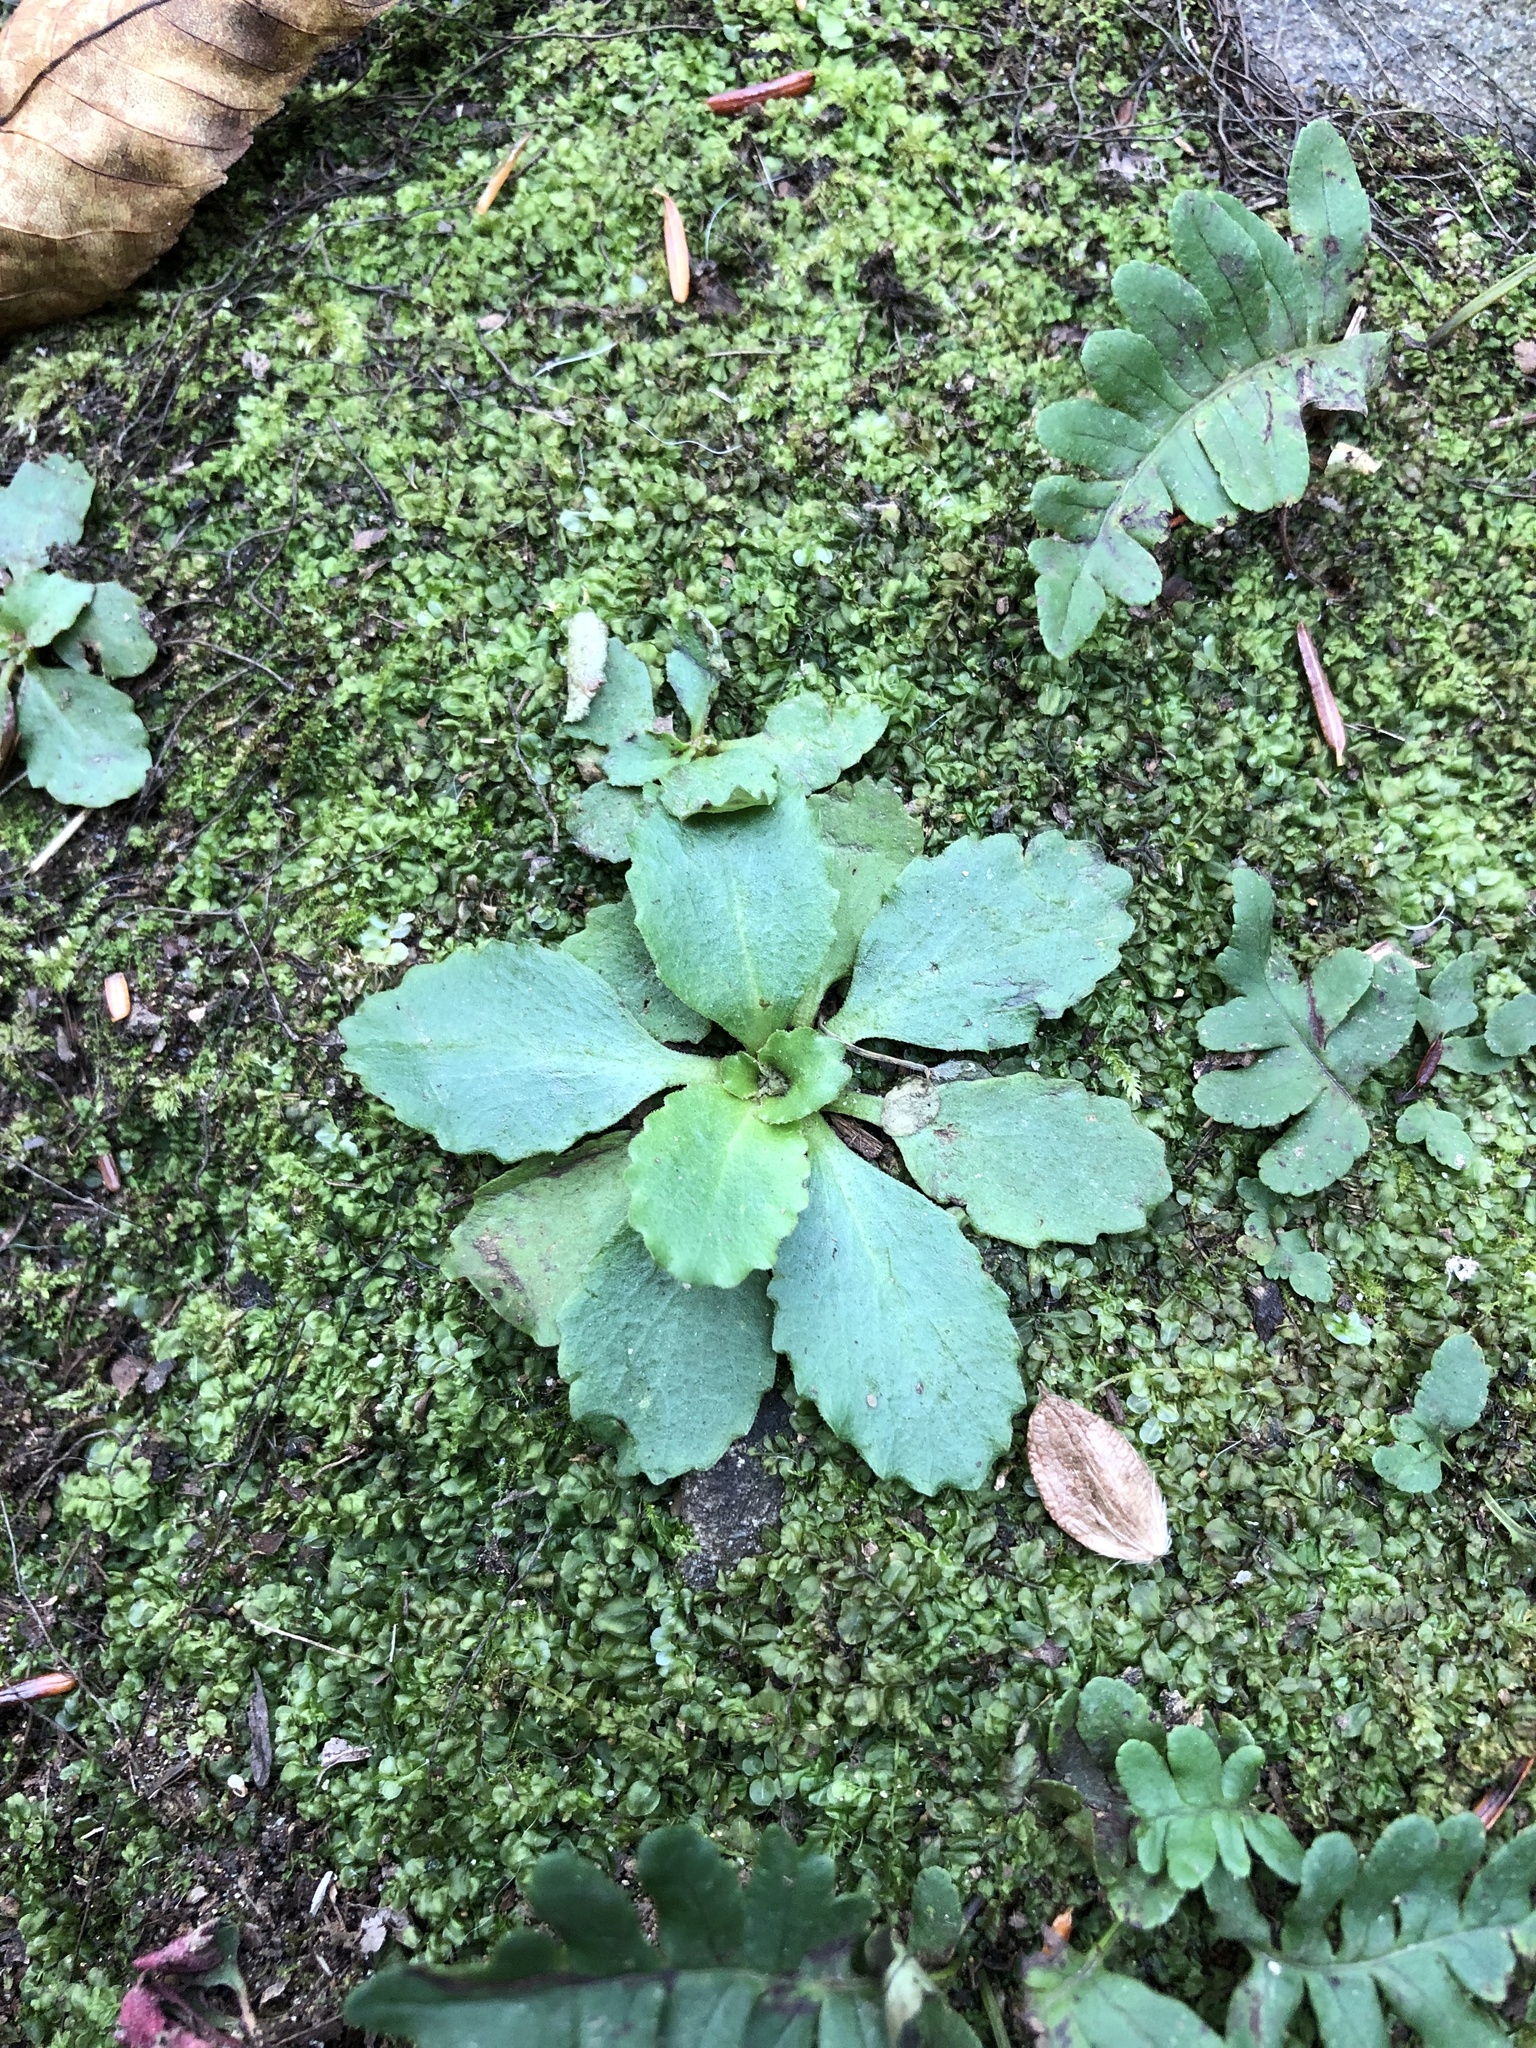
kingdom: Plantae
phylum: Tracheophyta
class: Magnoliopsida
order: Saxifragales
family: Saxifragaceae
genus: Micranthes
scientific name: Micranthes virginiensis
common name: Early saxifrage
